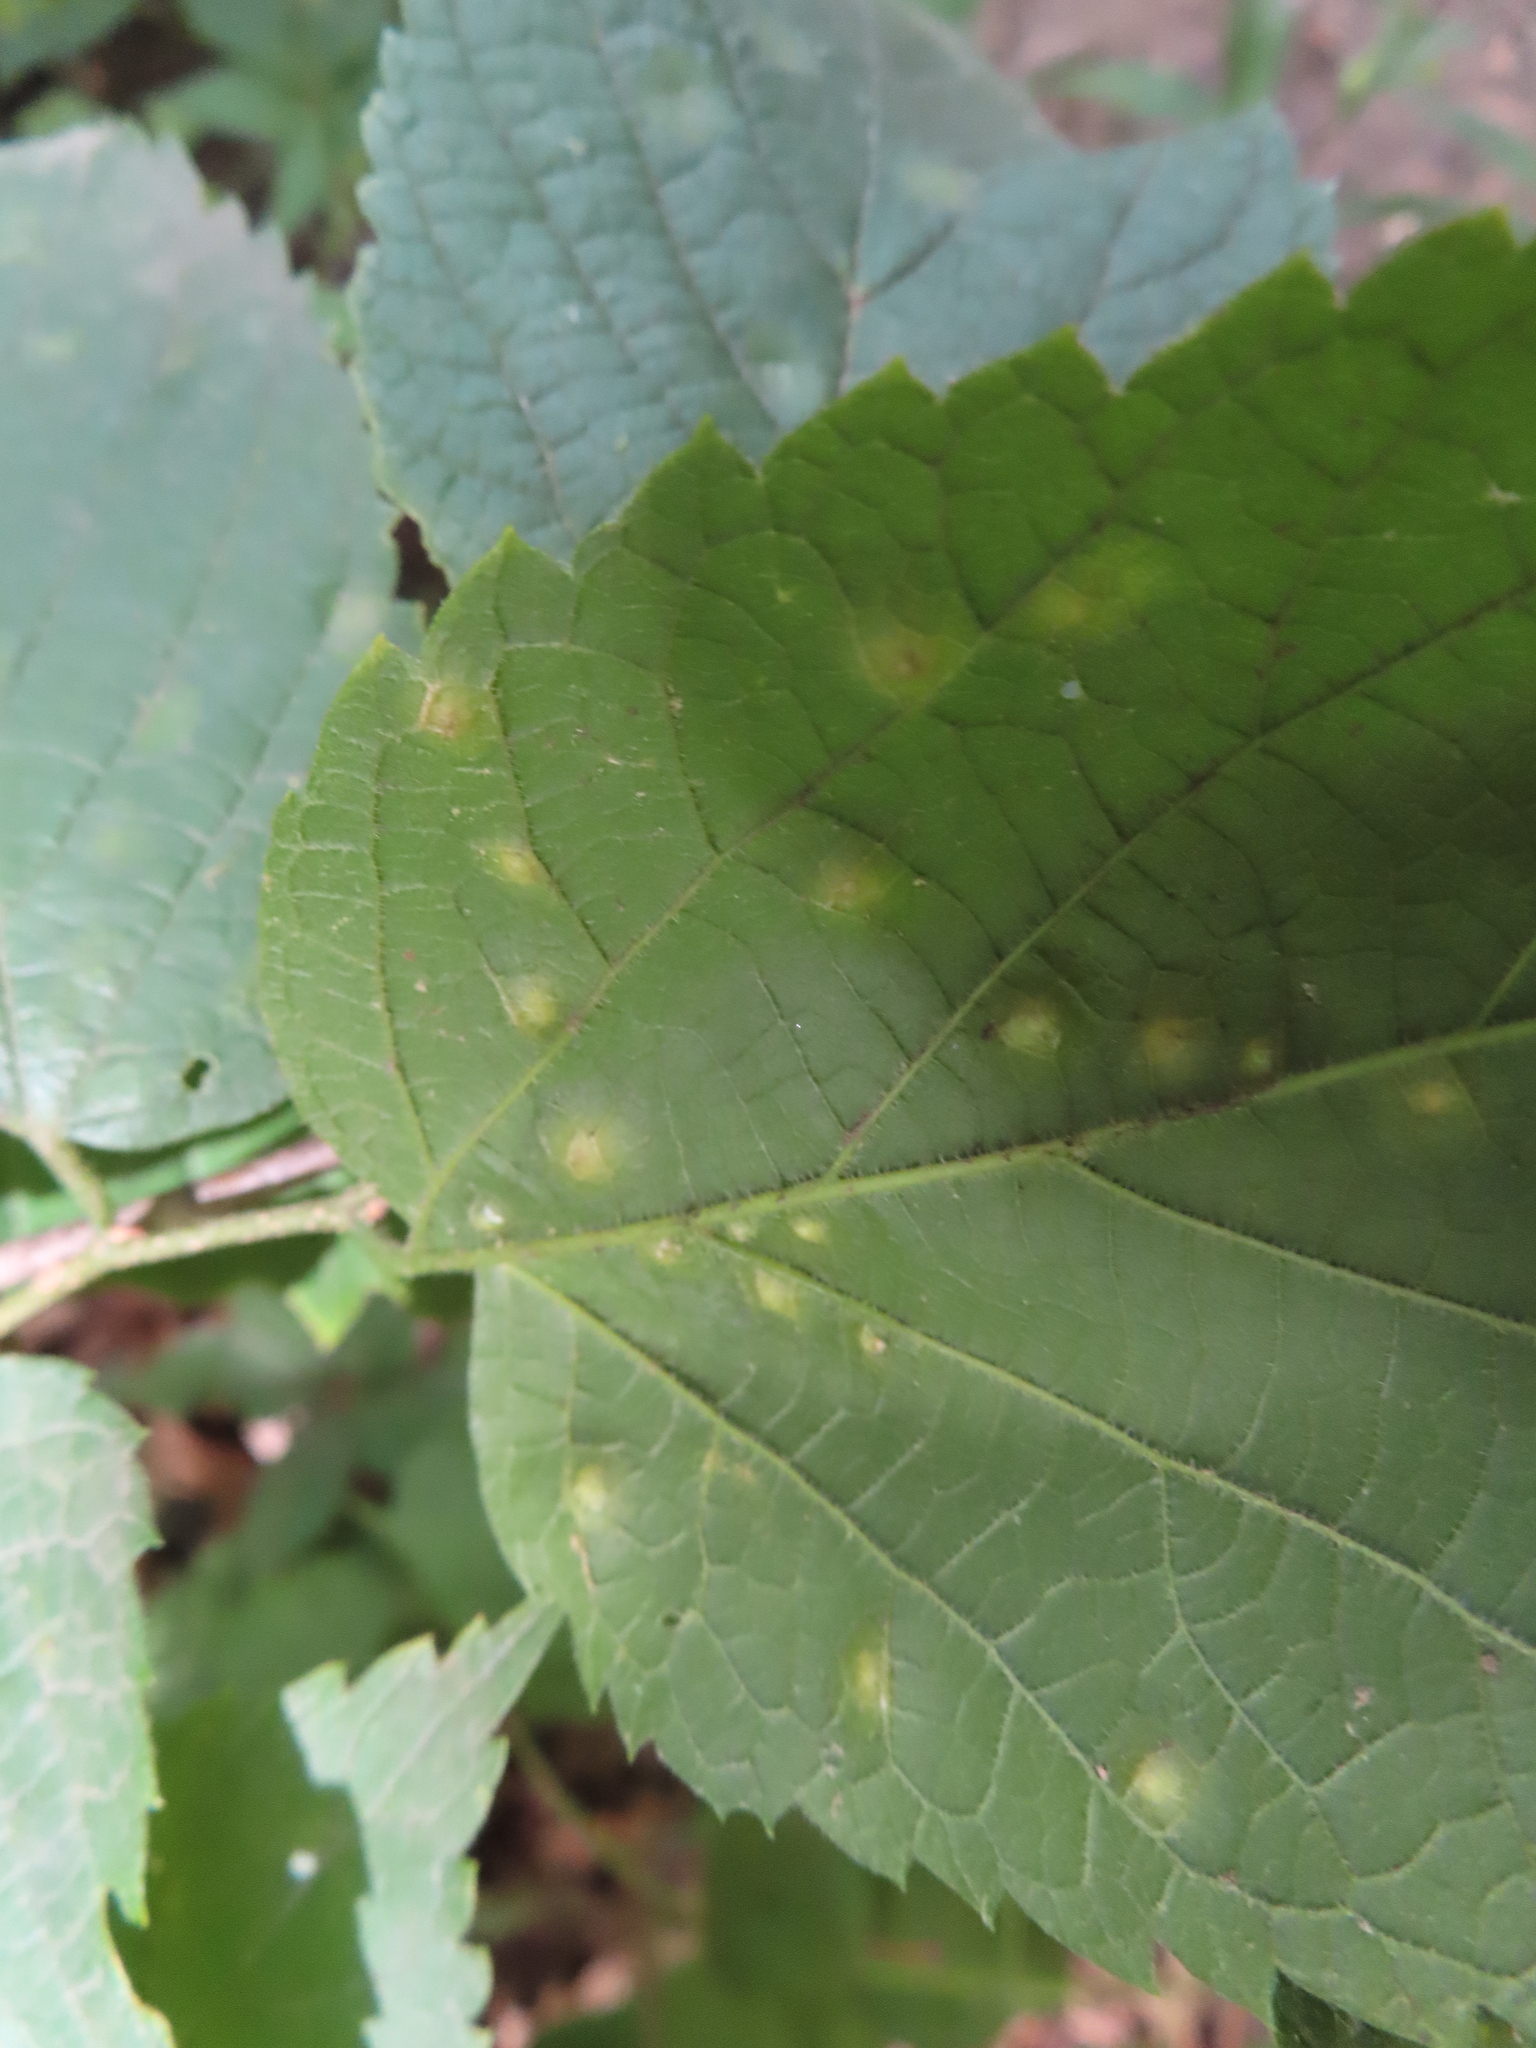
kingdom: Animalia
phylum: Arthropoda
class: Insecta
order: Hemiptera
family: Aphalaridae
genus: Pachypsylla
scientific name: Pachypsylla celtidisvesicula
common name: Hackberry blister gall psyllid
